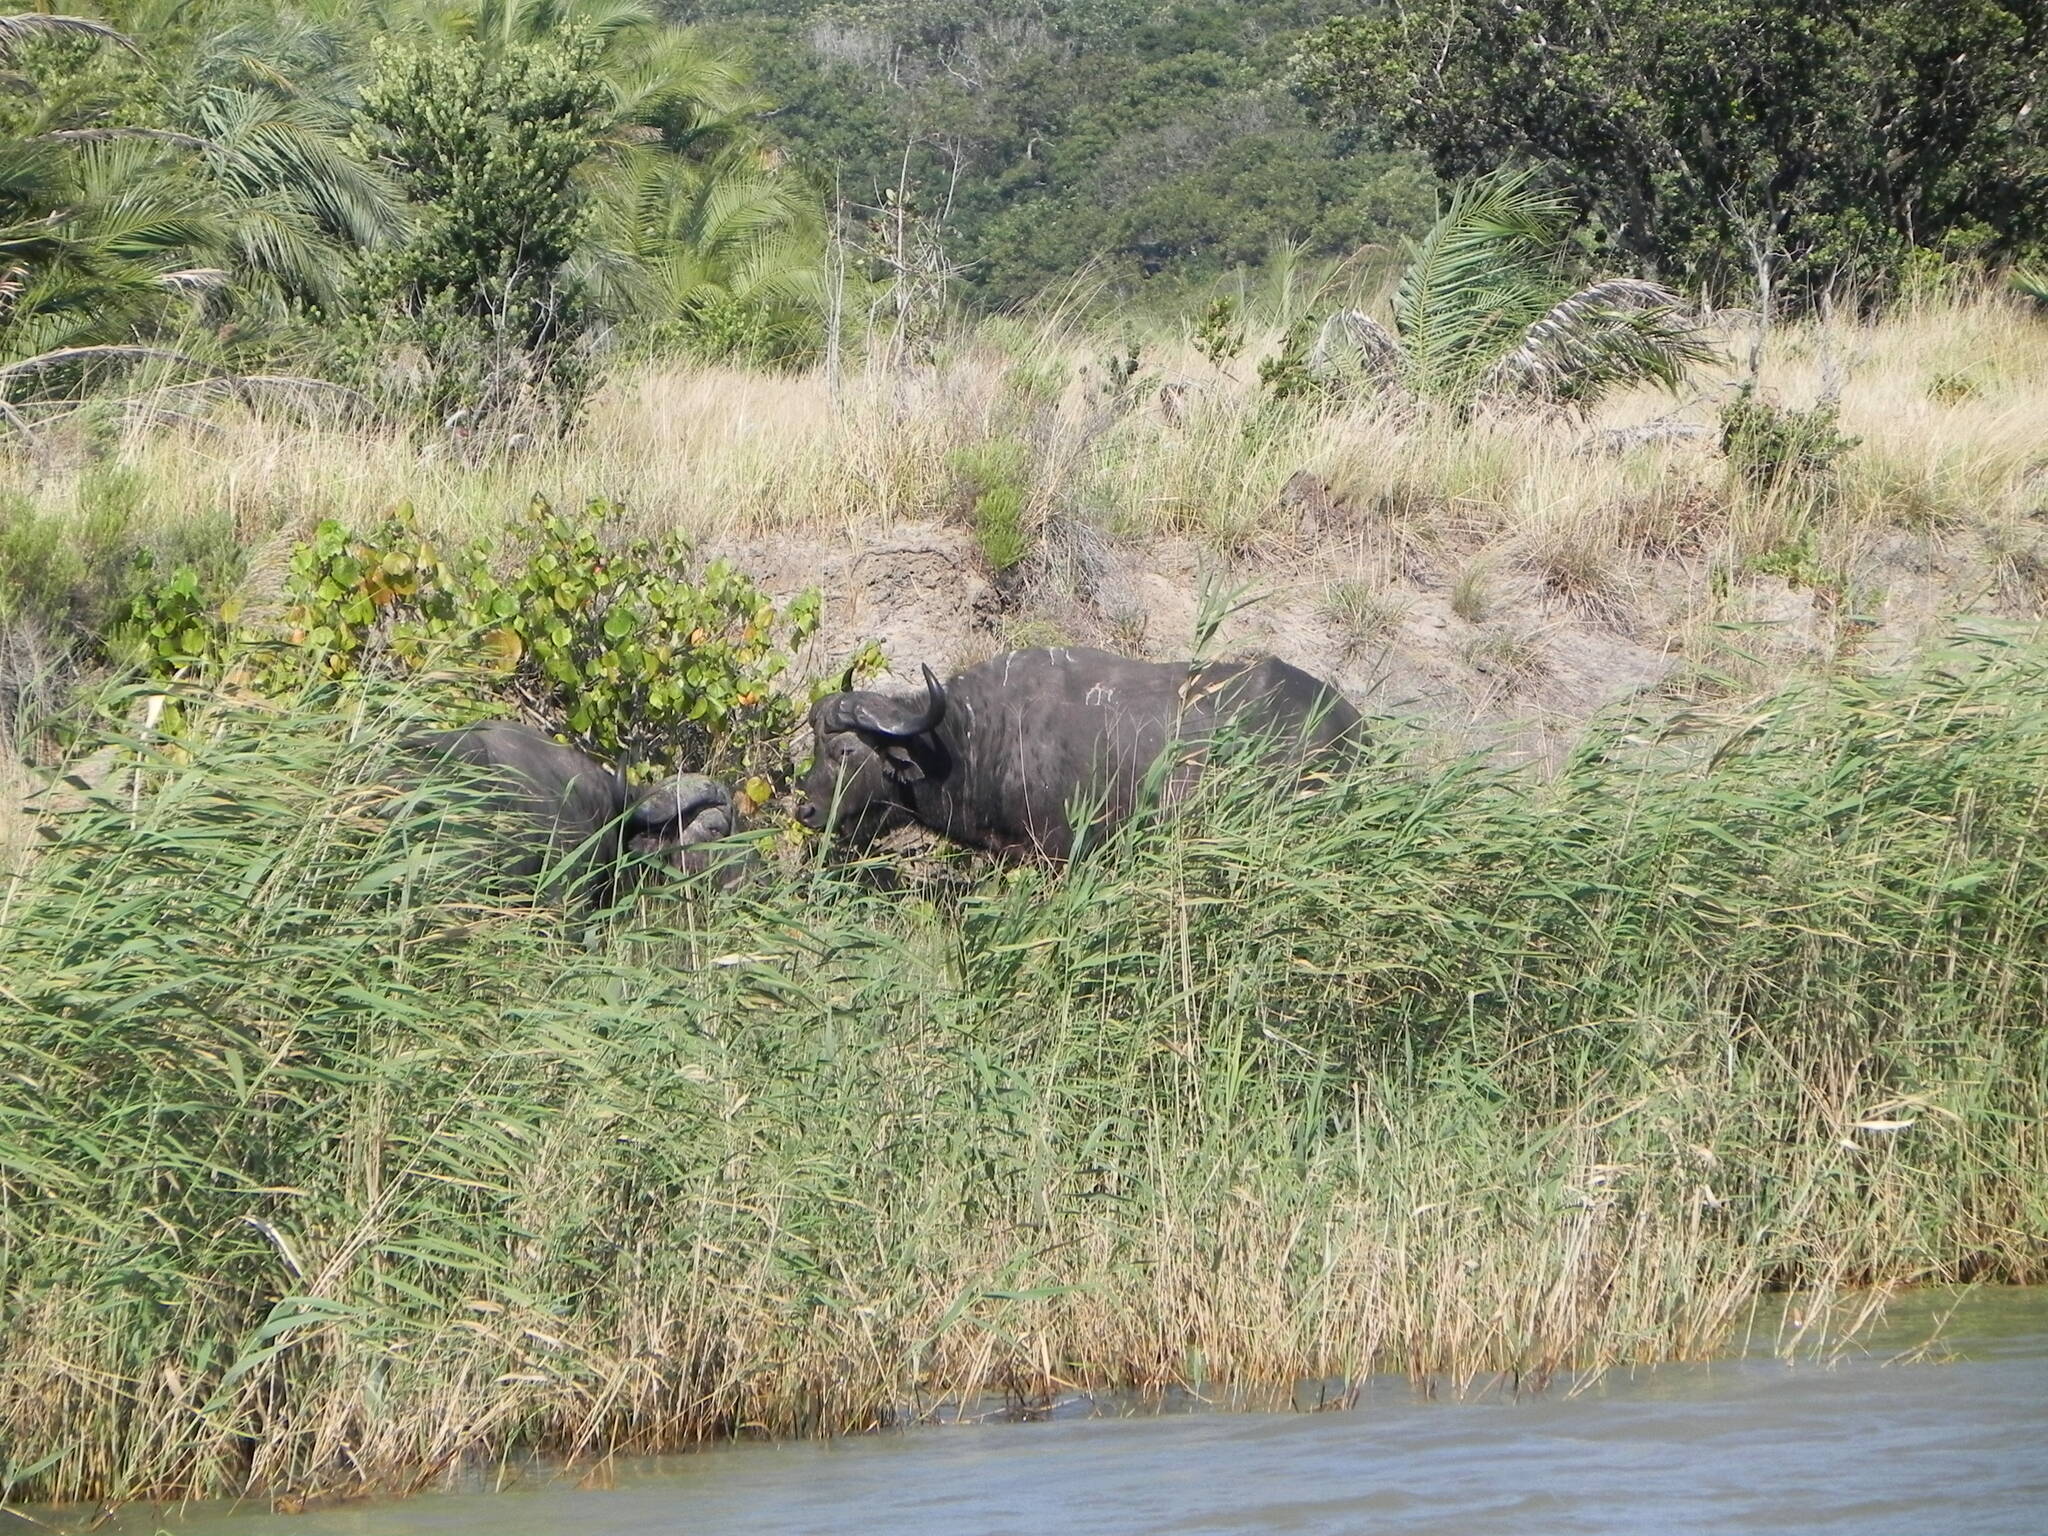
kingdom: Animalia
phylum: Chordata
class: Mammalia
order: Artiodactyla
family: Bovidae
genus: Syncerus
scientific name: Syncerus caffer
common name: African buffalo
